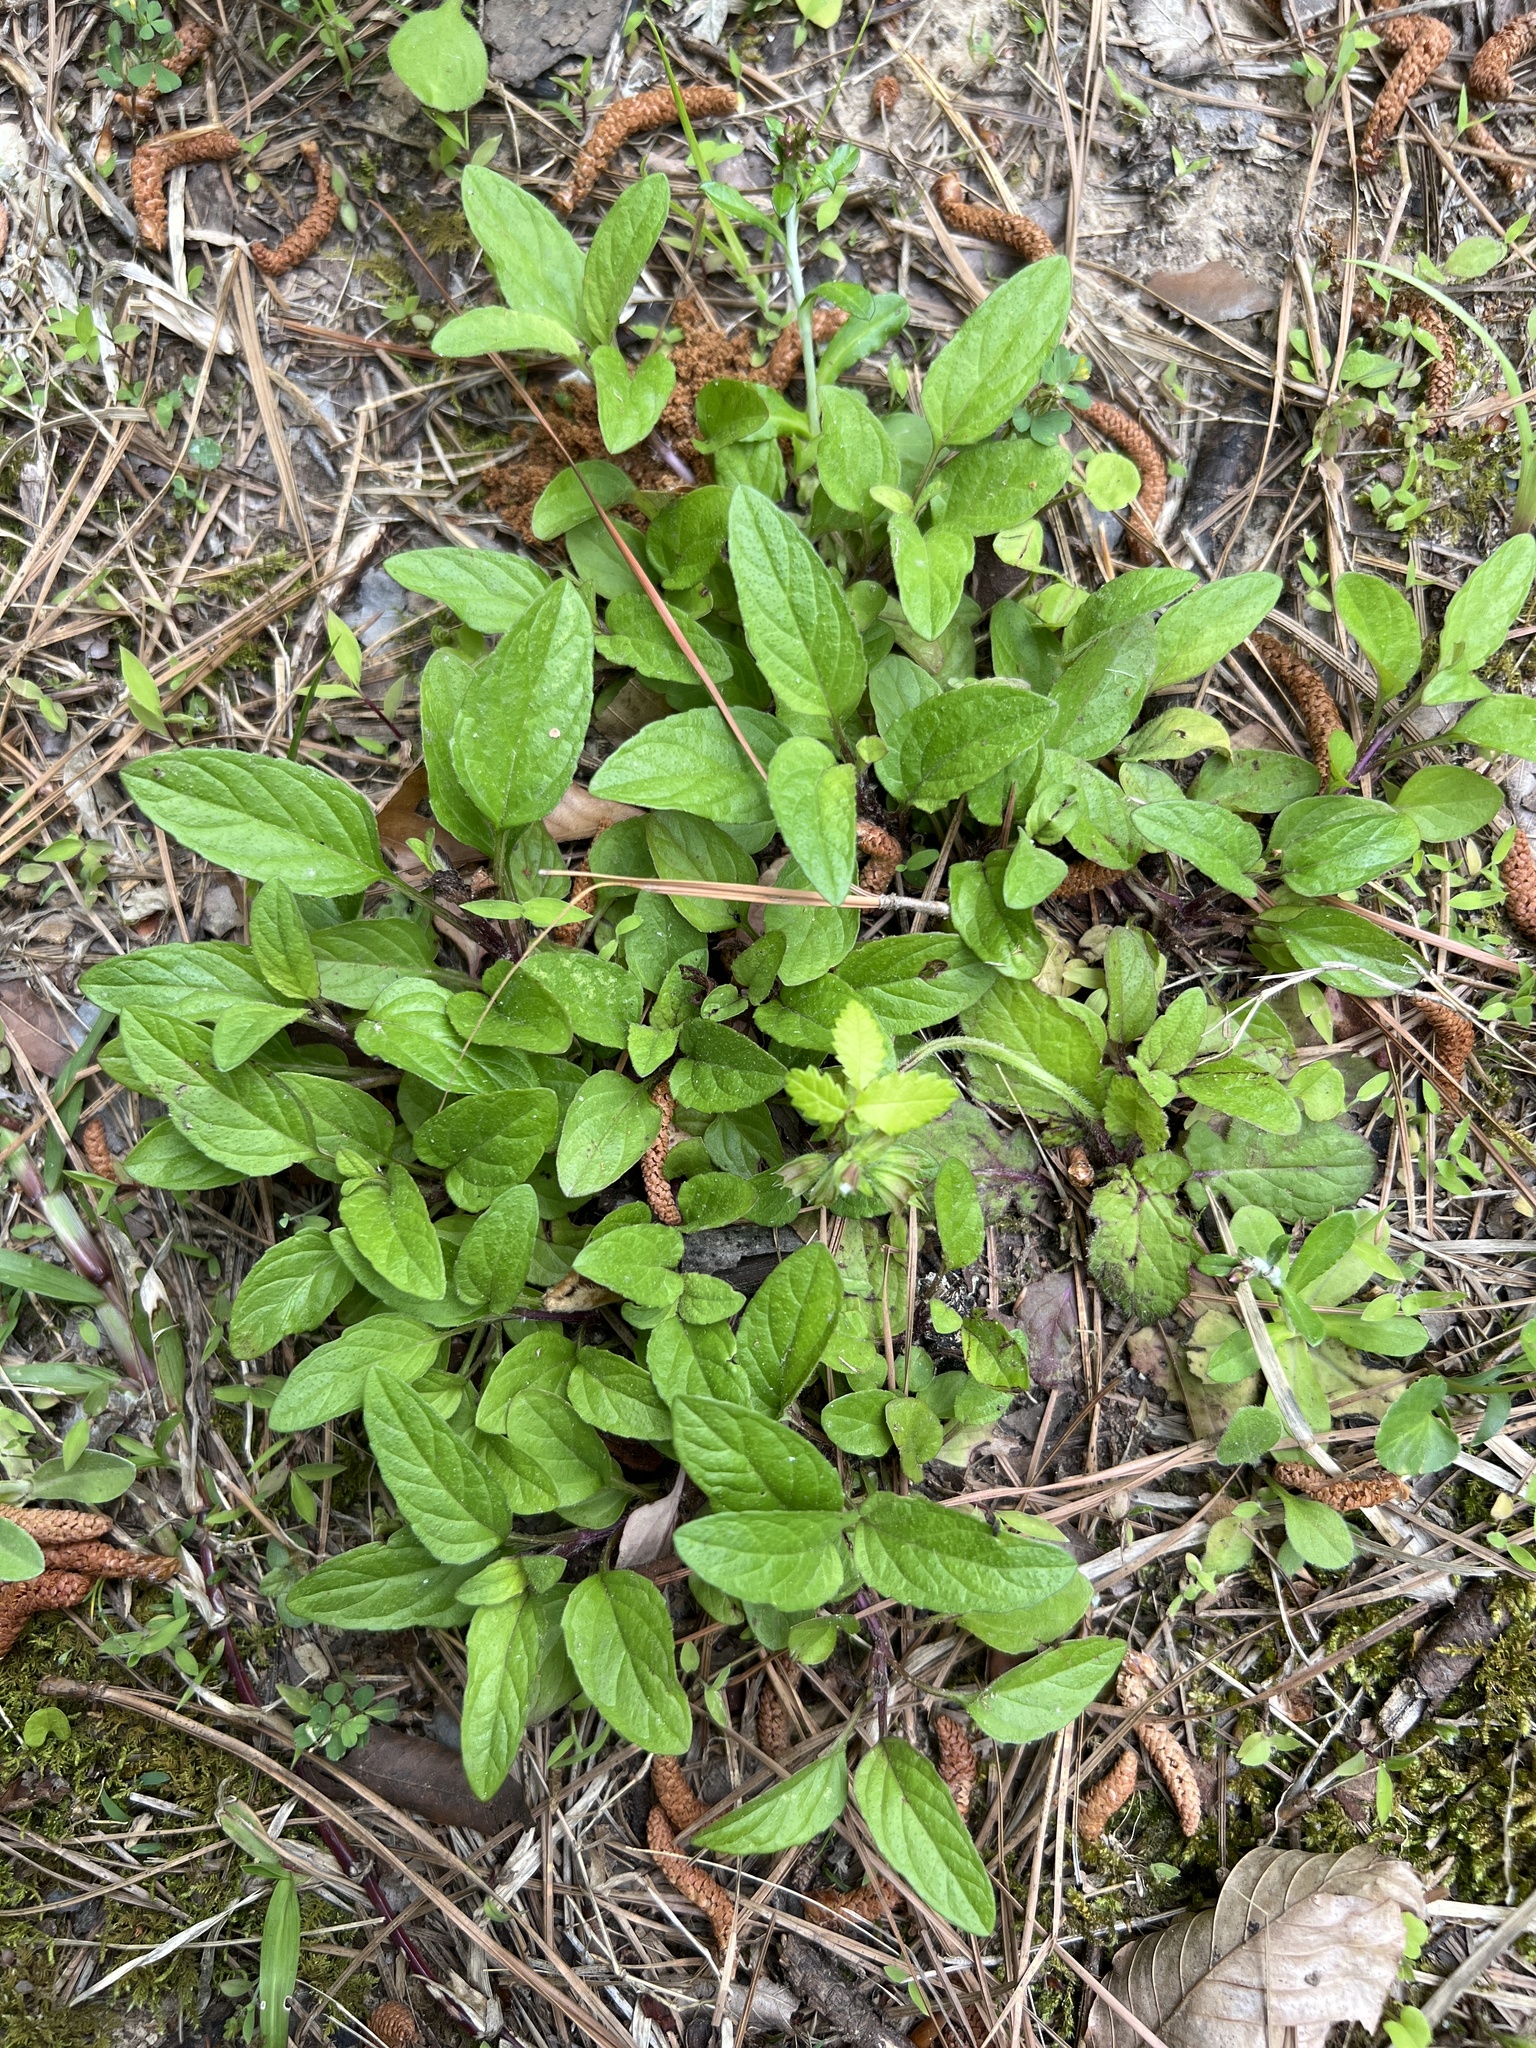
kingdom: Plantae
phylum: Tracheophyta
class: Magnoliopsida
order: Lamiales
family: Lamiaceae
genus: Prunella
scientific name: Prunella vulgaris
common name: Heal-all
